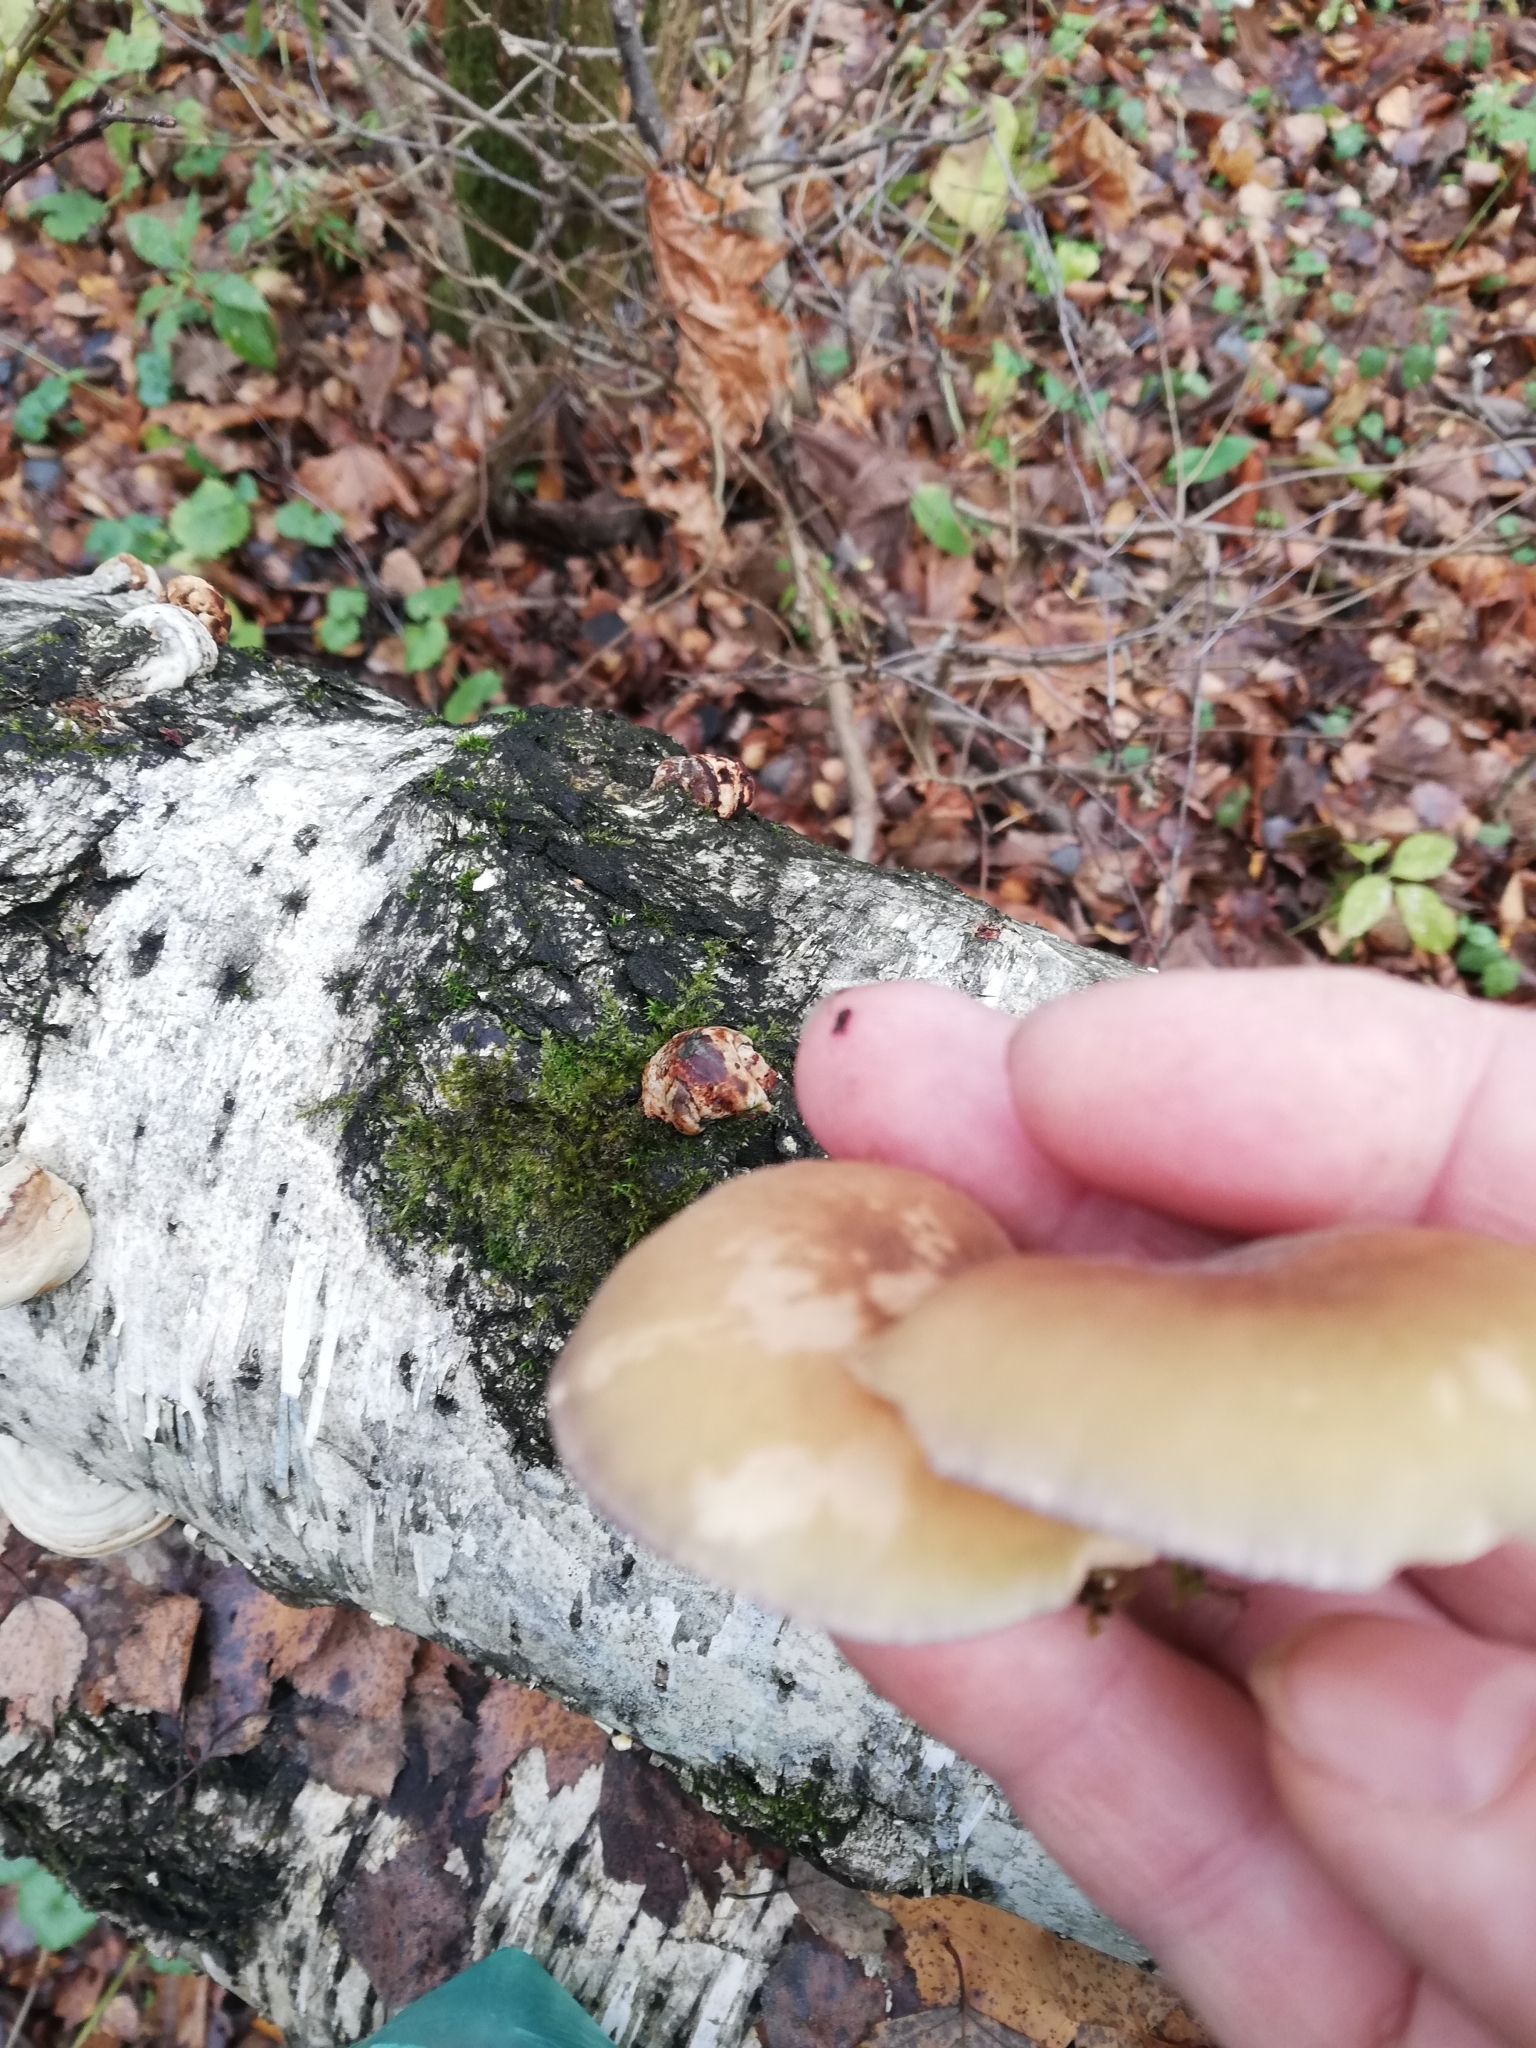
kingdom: Fungi
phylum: Basidiomycota
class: Agaricomycetes
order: Agaricales
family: Sarcomyxaceae
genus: Sarcomyxa
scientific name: Sarcomyxa serotina
